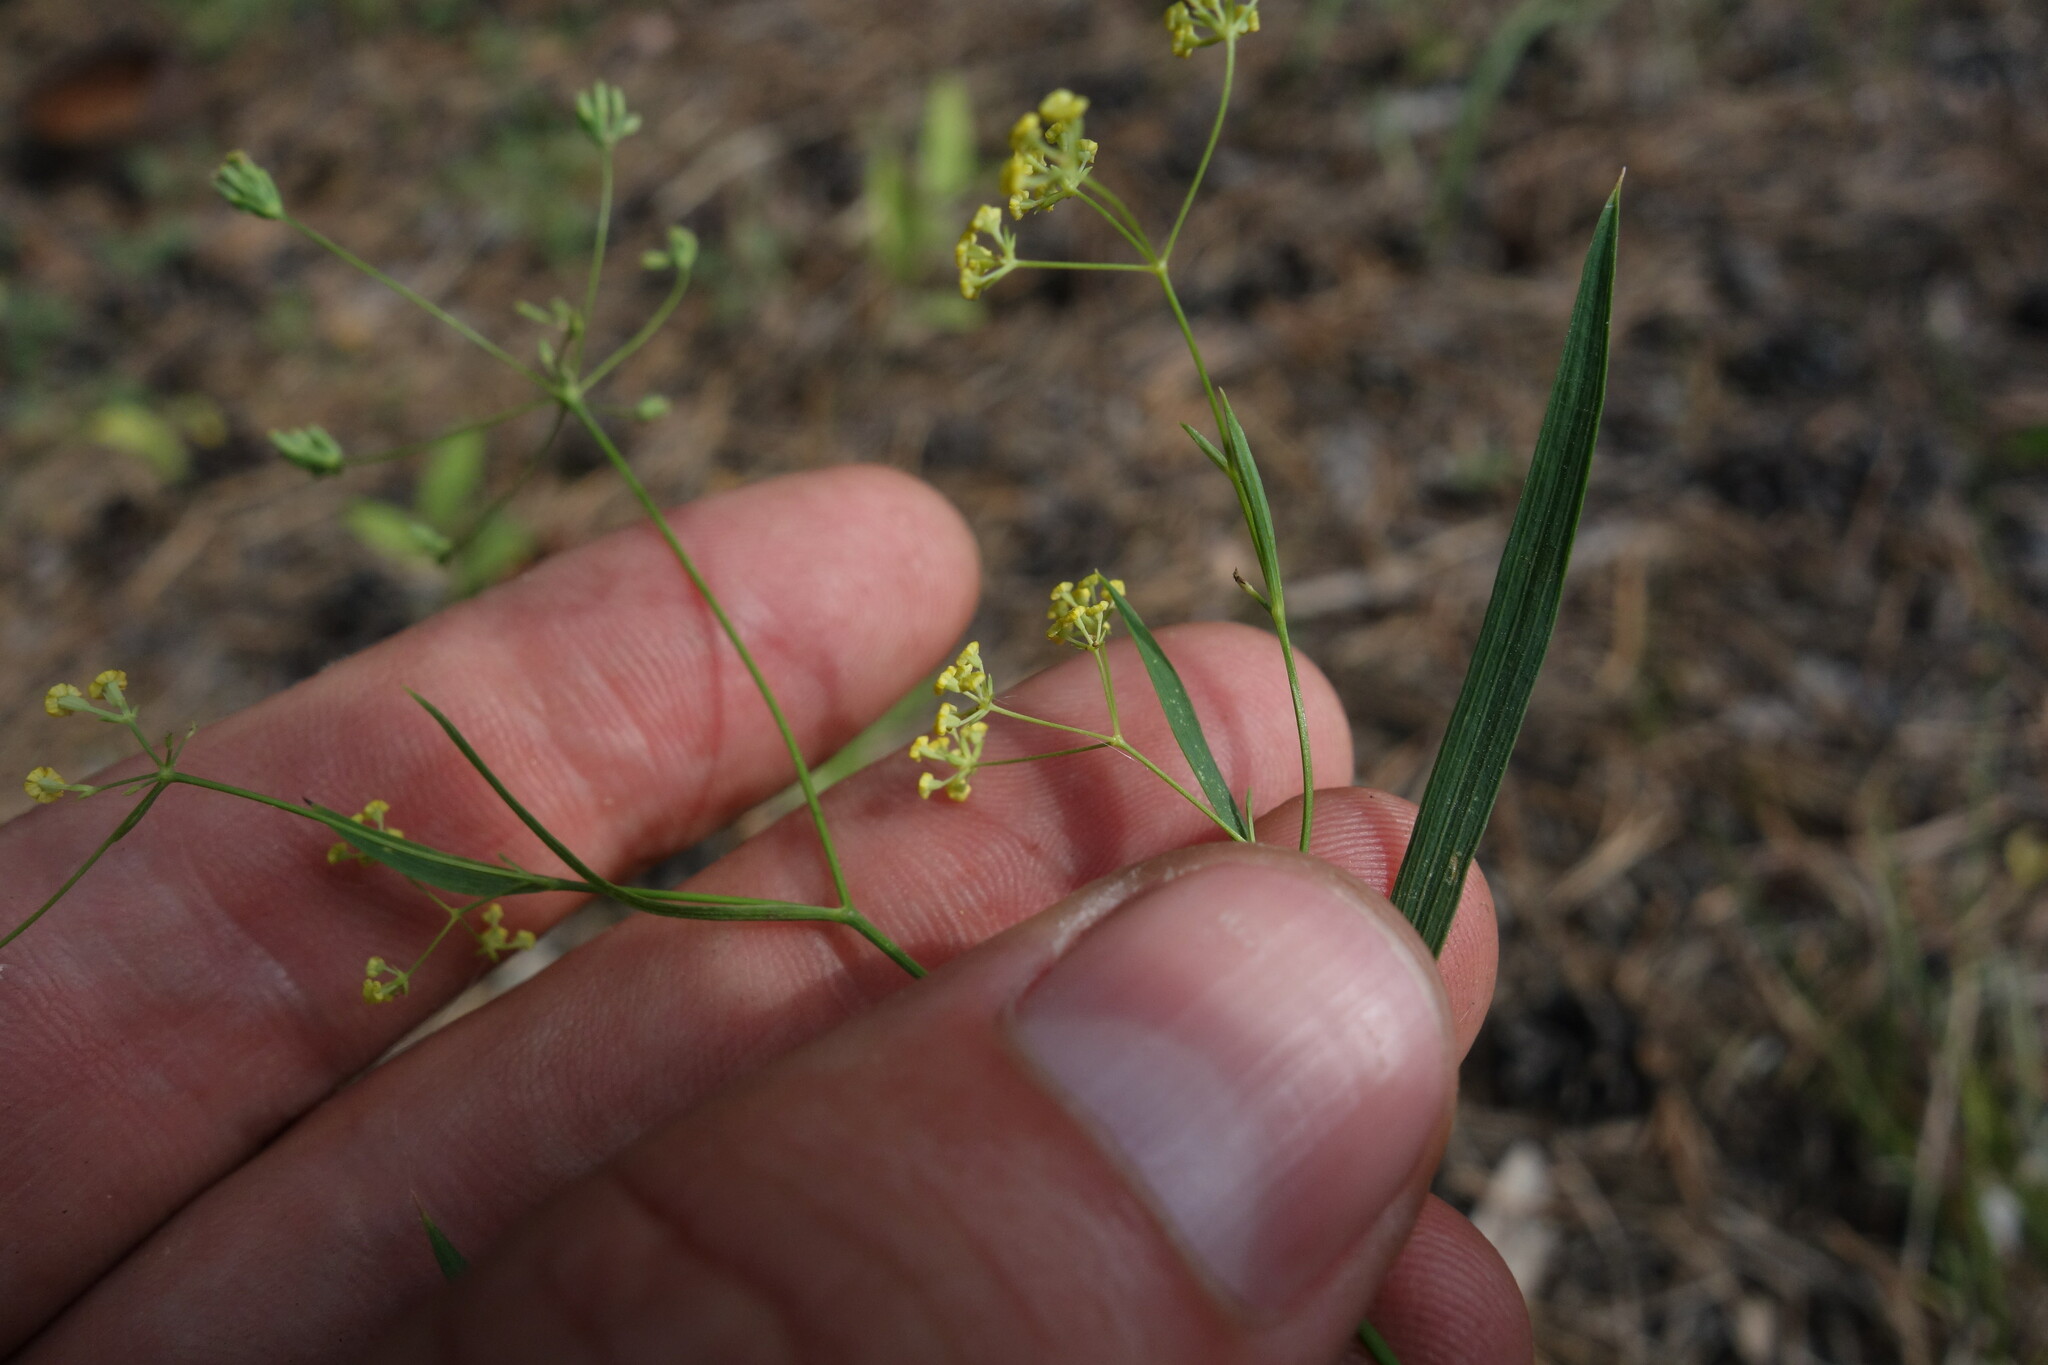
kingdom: Plantae
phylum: Tracheophyta
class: Magnoliopsida
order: Apiales
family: Apiaceae
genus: Bupleurum
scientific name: Bupleurum scorzonerifolium
